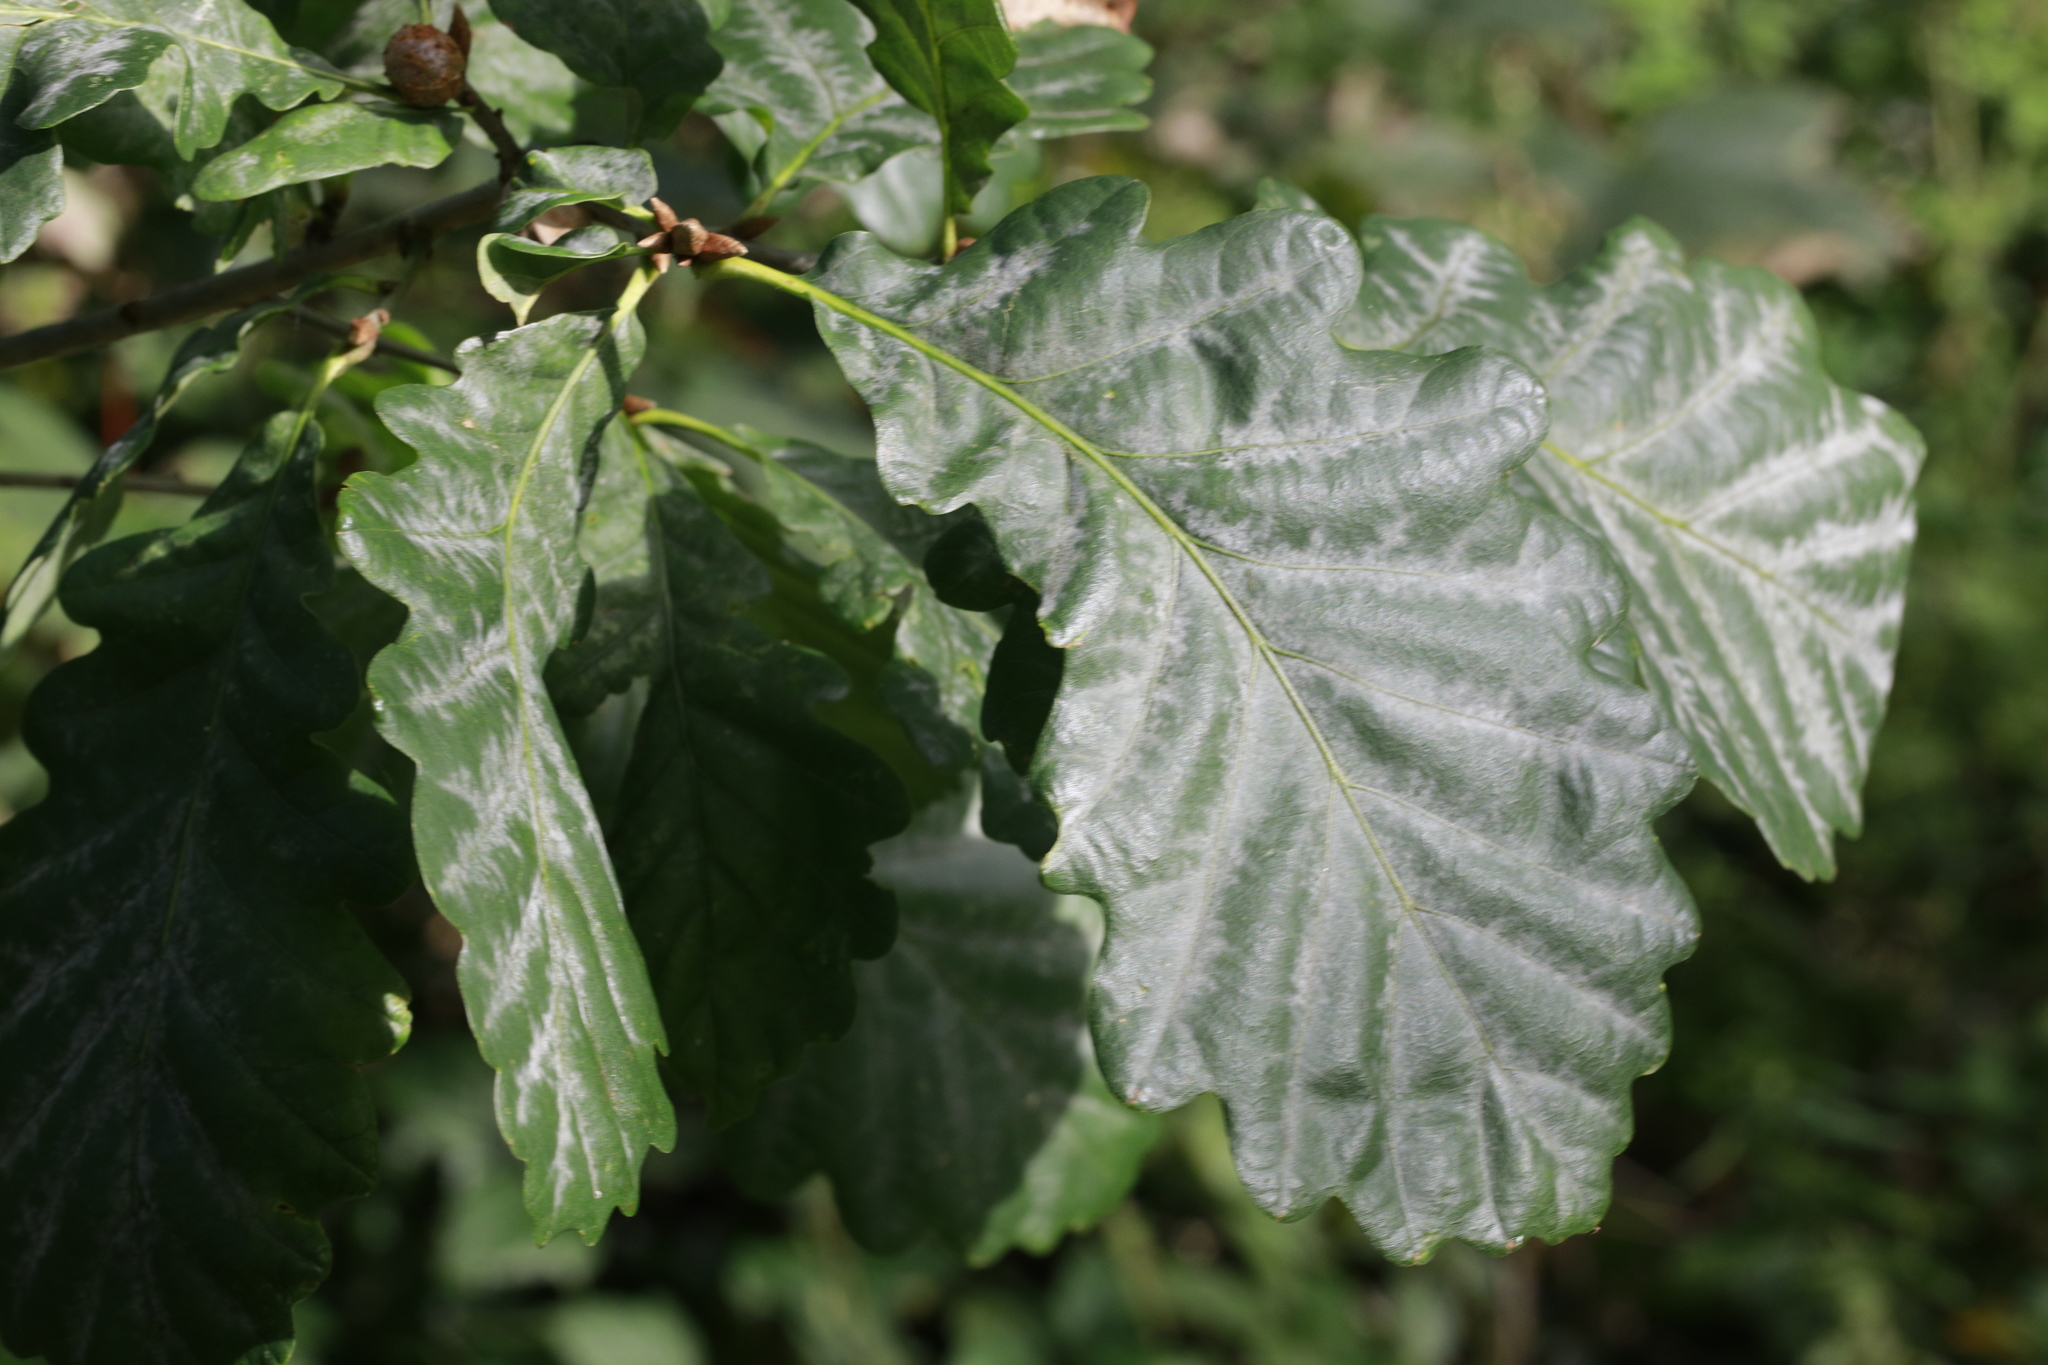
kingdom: Plantae
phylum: Tracheophyta
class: Magnoliopsida
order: Fagales
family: Fagaceae
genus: Quercus
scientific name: Quercus petraea
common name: Sessile oak
